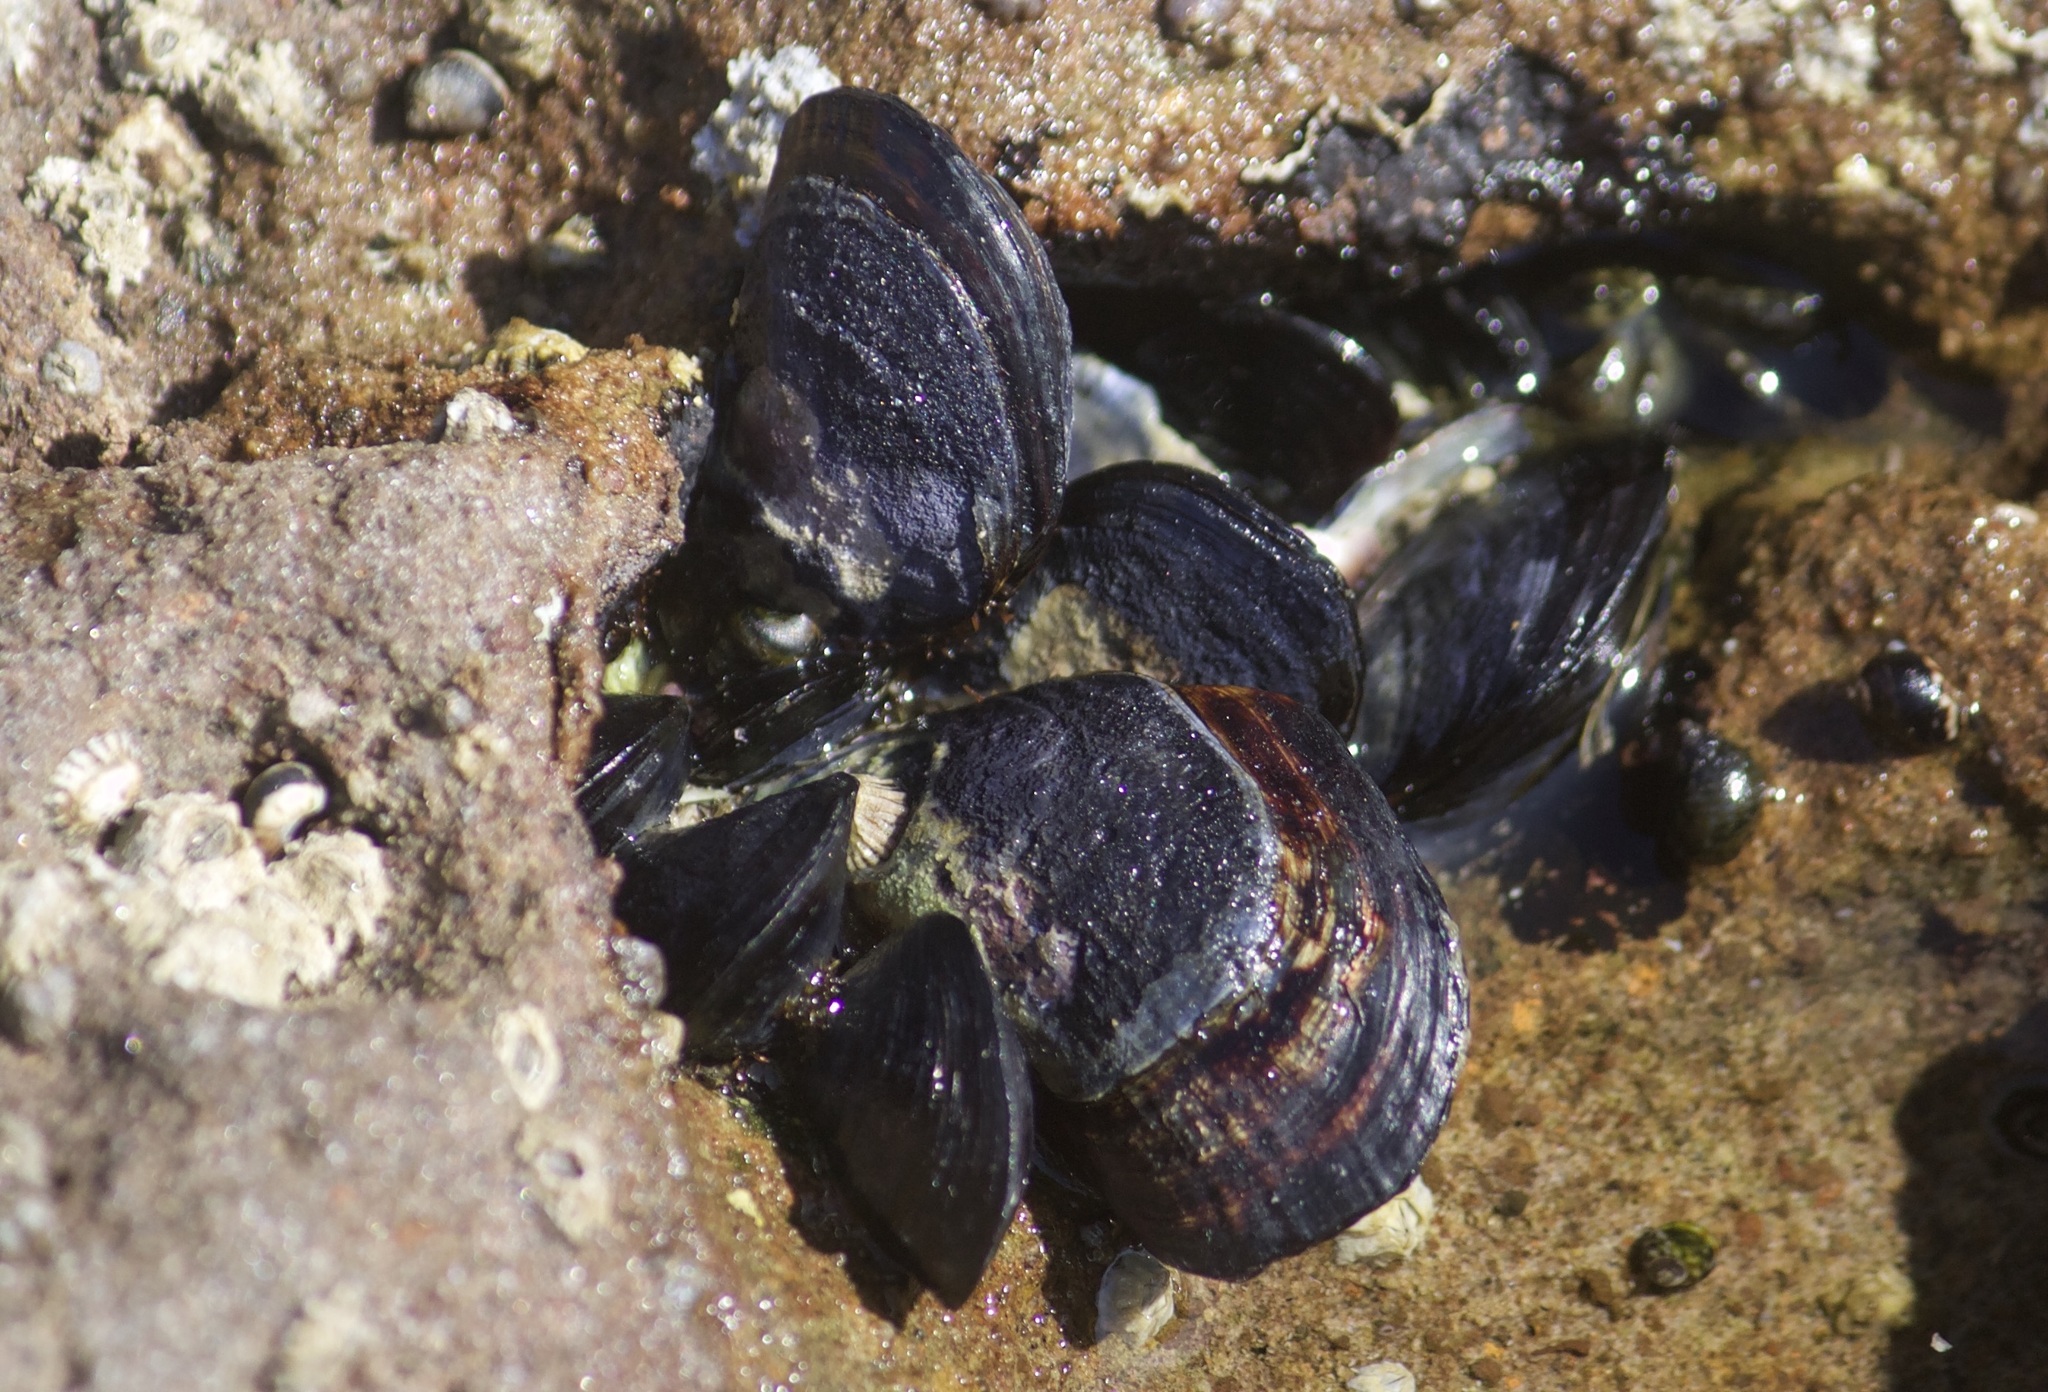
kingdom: Animalia
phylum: Mollusca
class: Bivalvia
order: Mytilida
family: Mytilidae
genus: Mytilus
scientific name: Mytilus californianus
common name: California mussel
